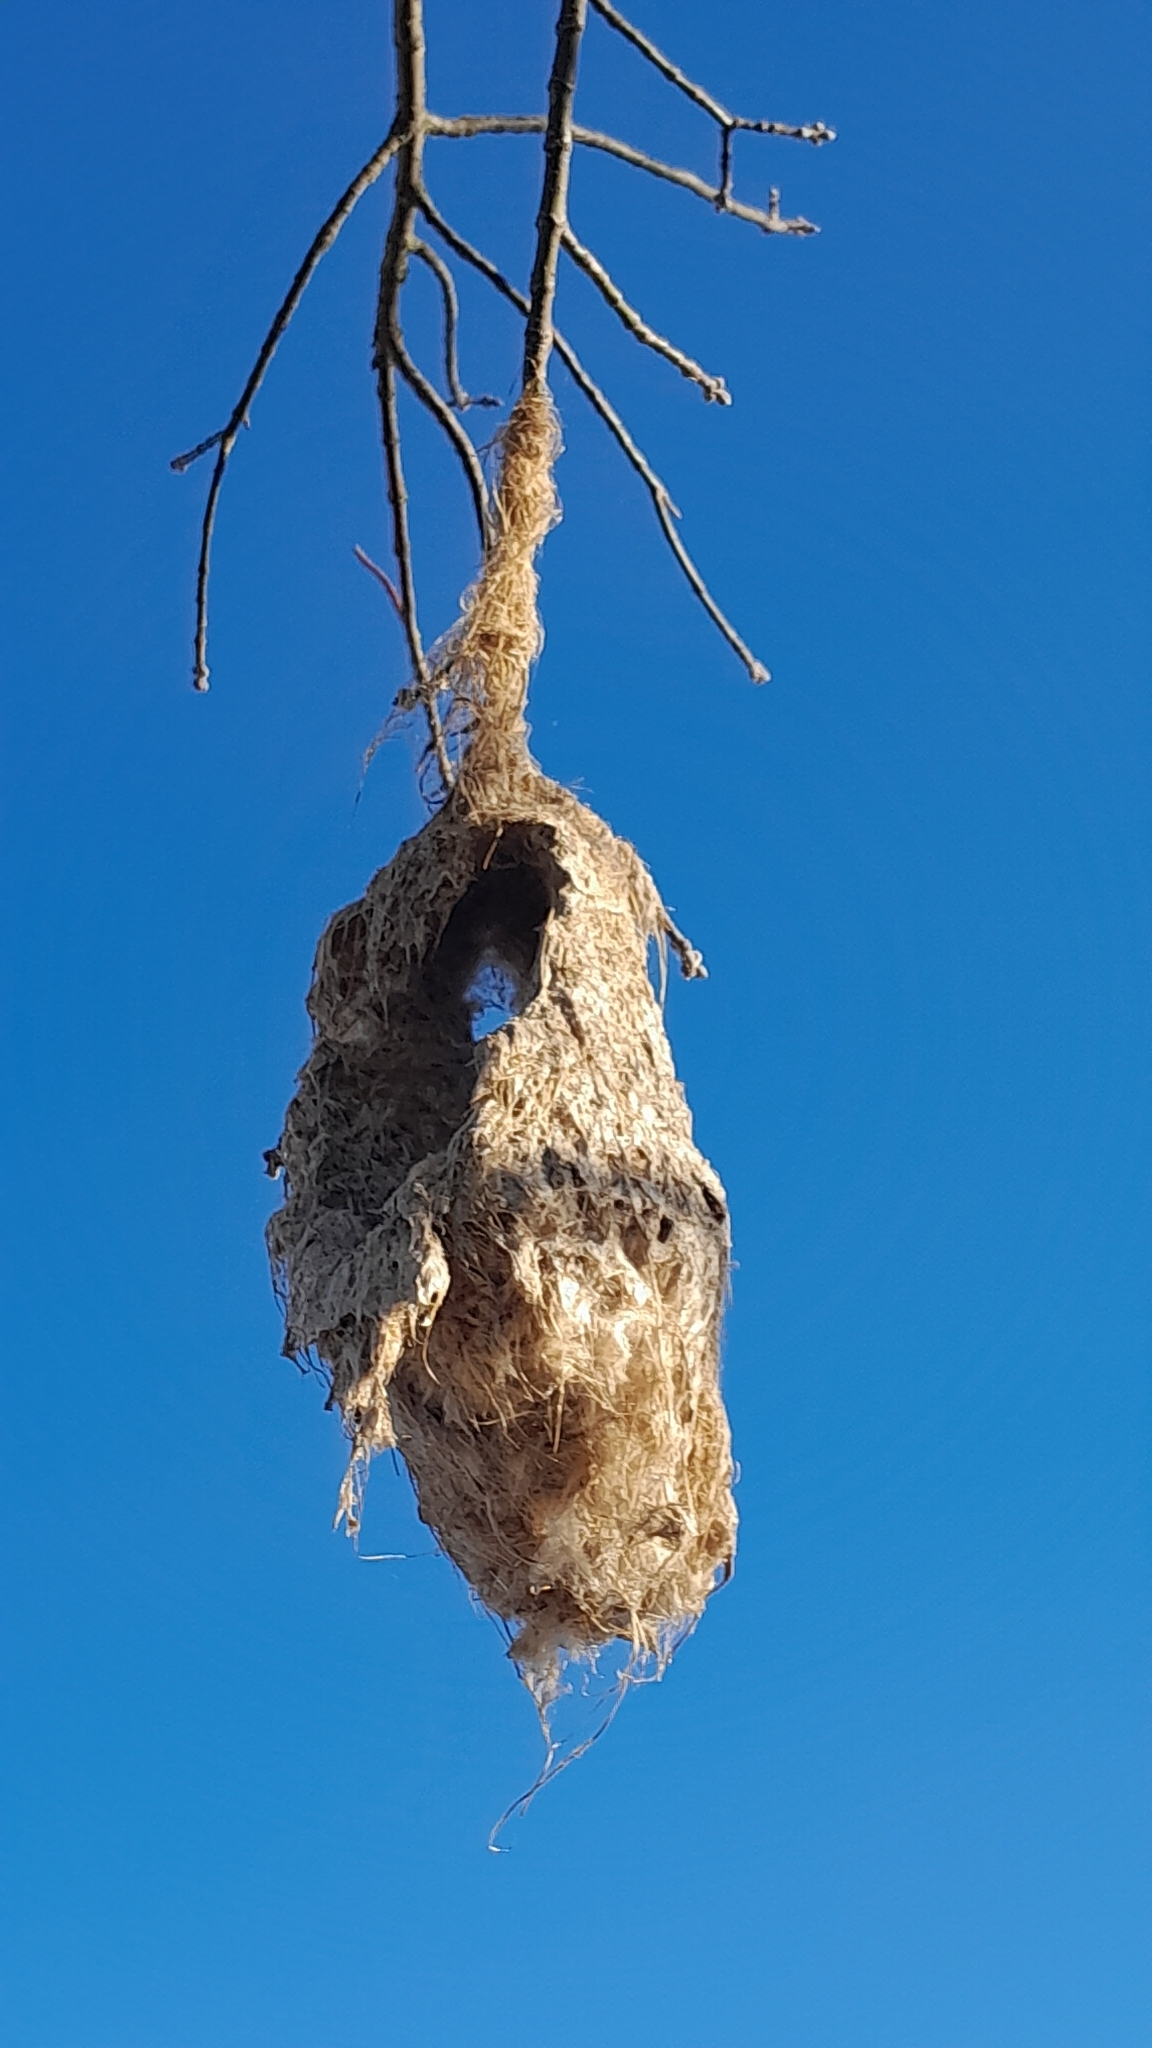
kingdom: Animalia
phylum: Chordata
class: Aves
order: Passeriformes
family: Remizidae
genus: Remiz
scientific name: Remiz pendulinus
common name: Eurasian penduline tit
